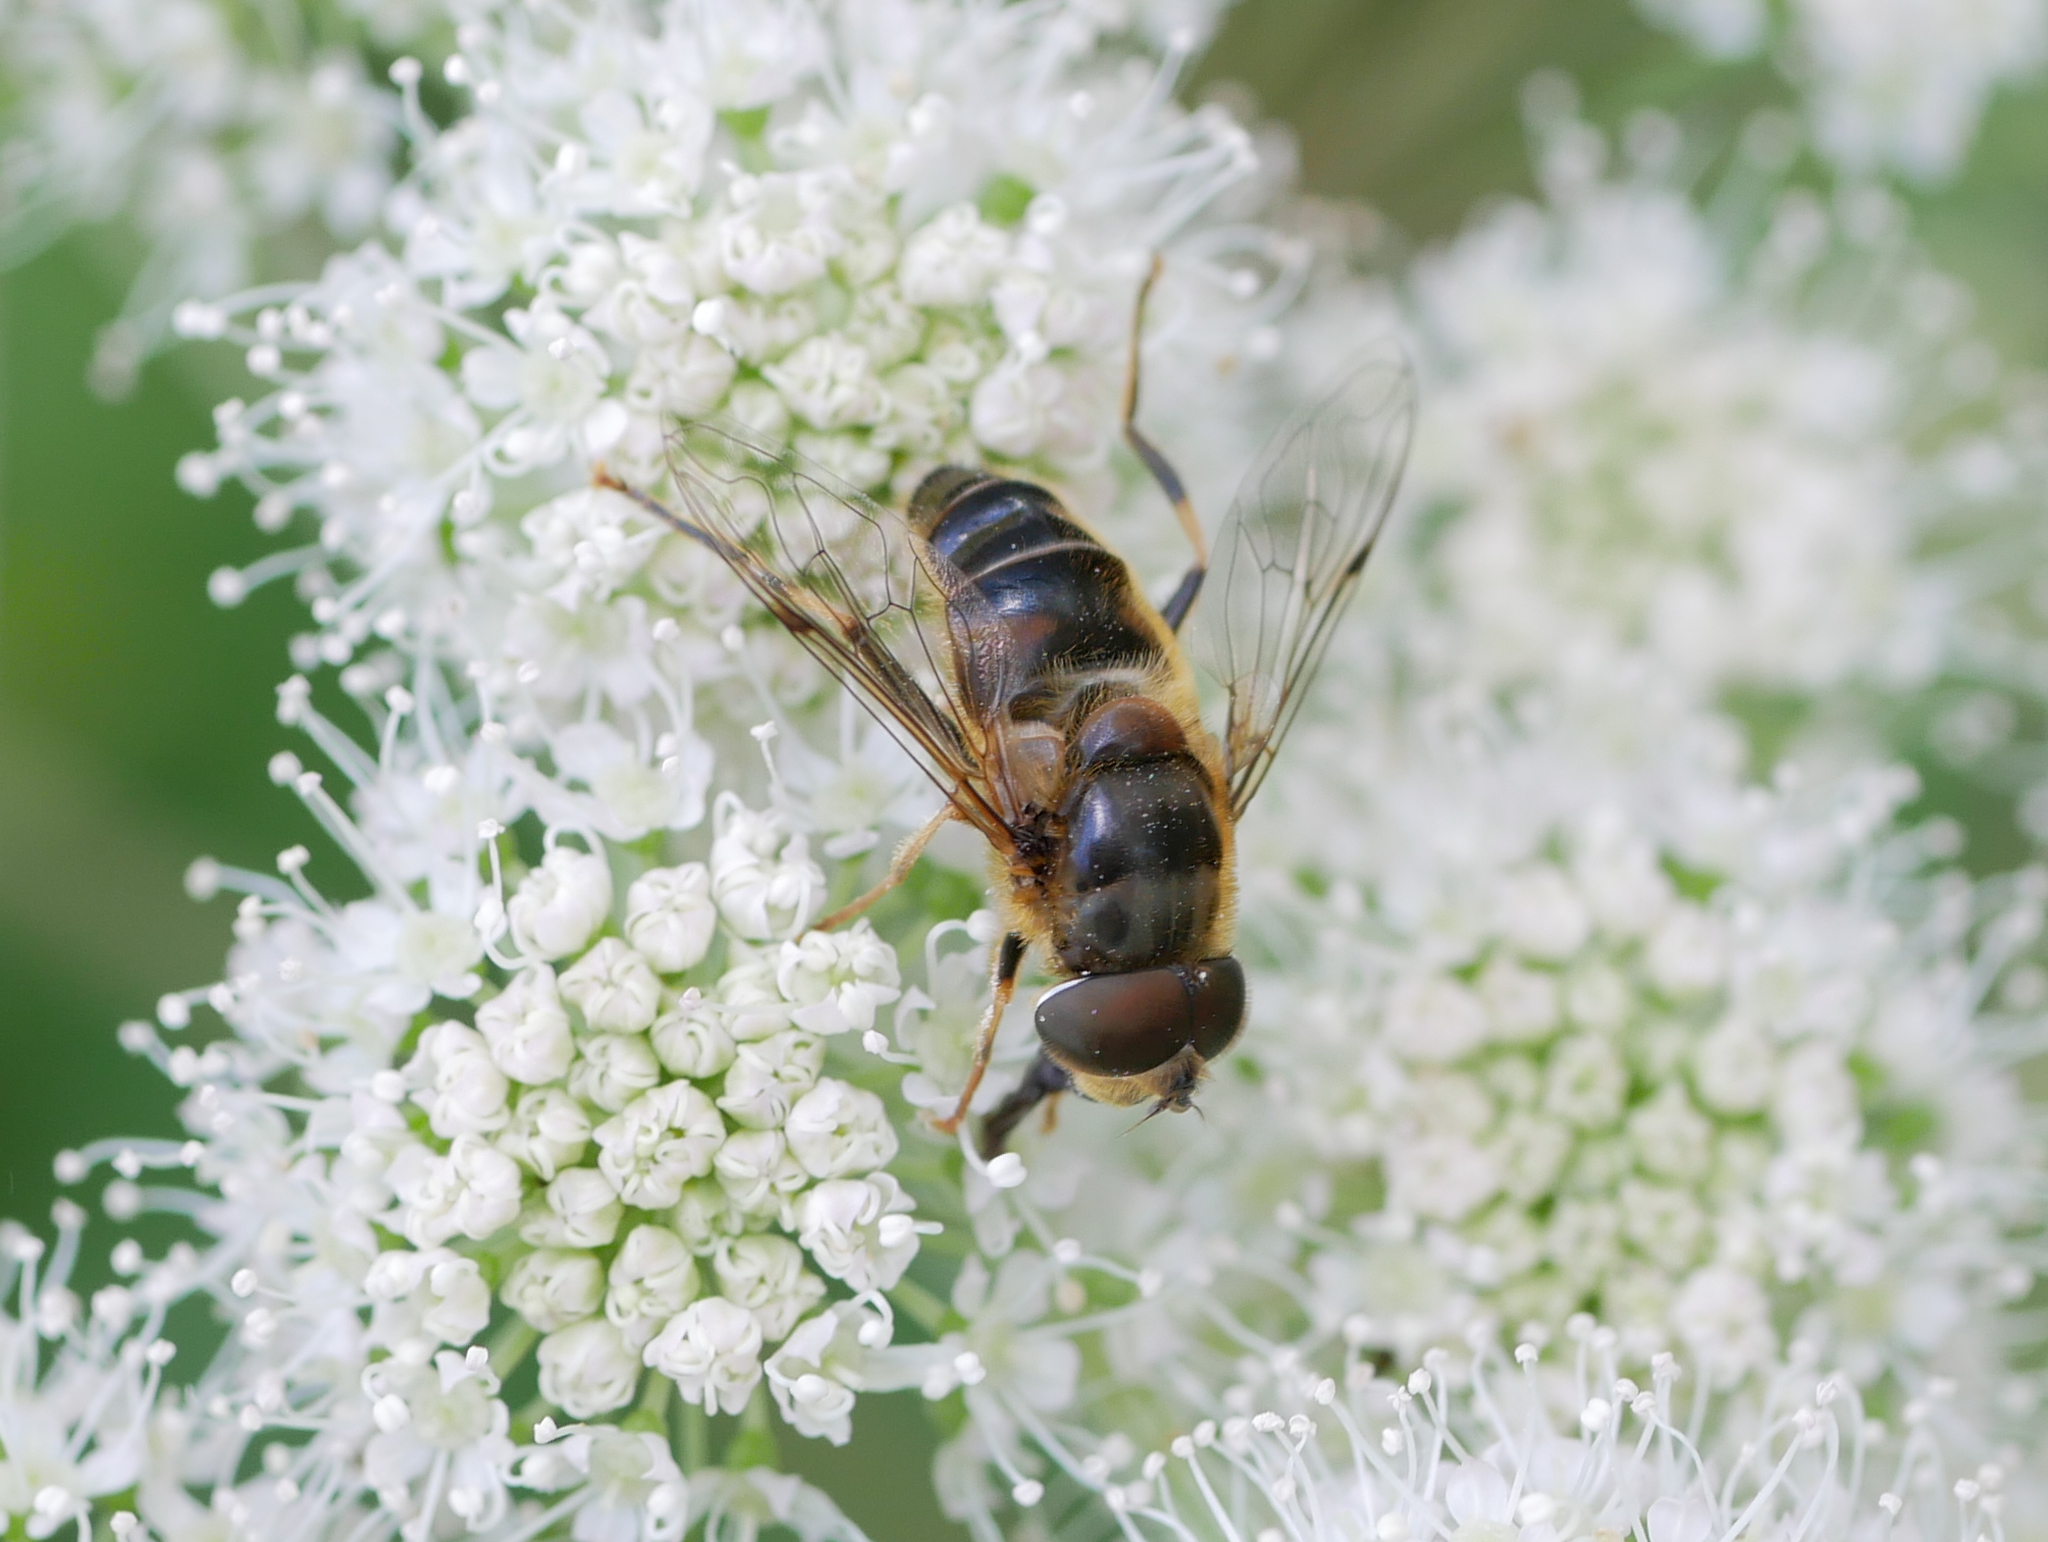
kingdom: Animalia
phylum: Arthropoda
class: Insecta
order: Diptera
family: Syrphidae
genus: Eristalis
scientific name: Eristalis pertinax
